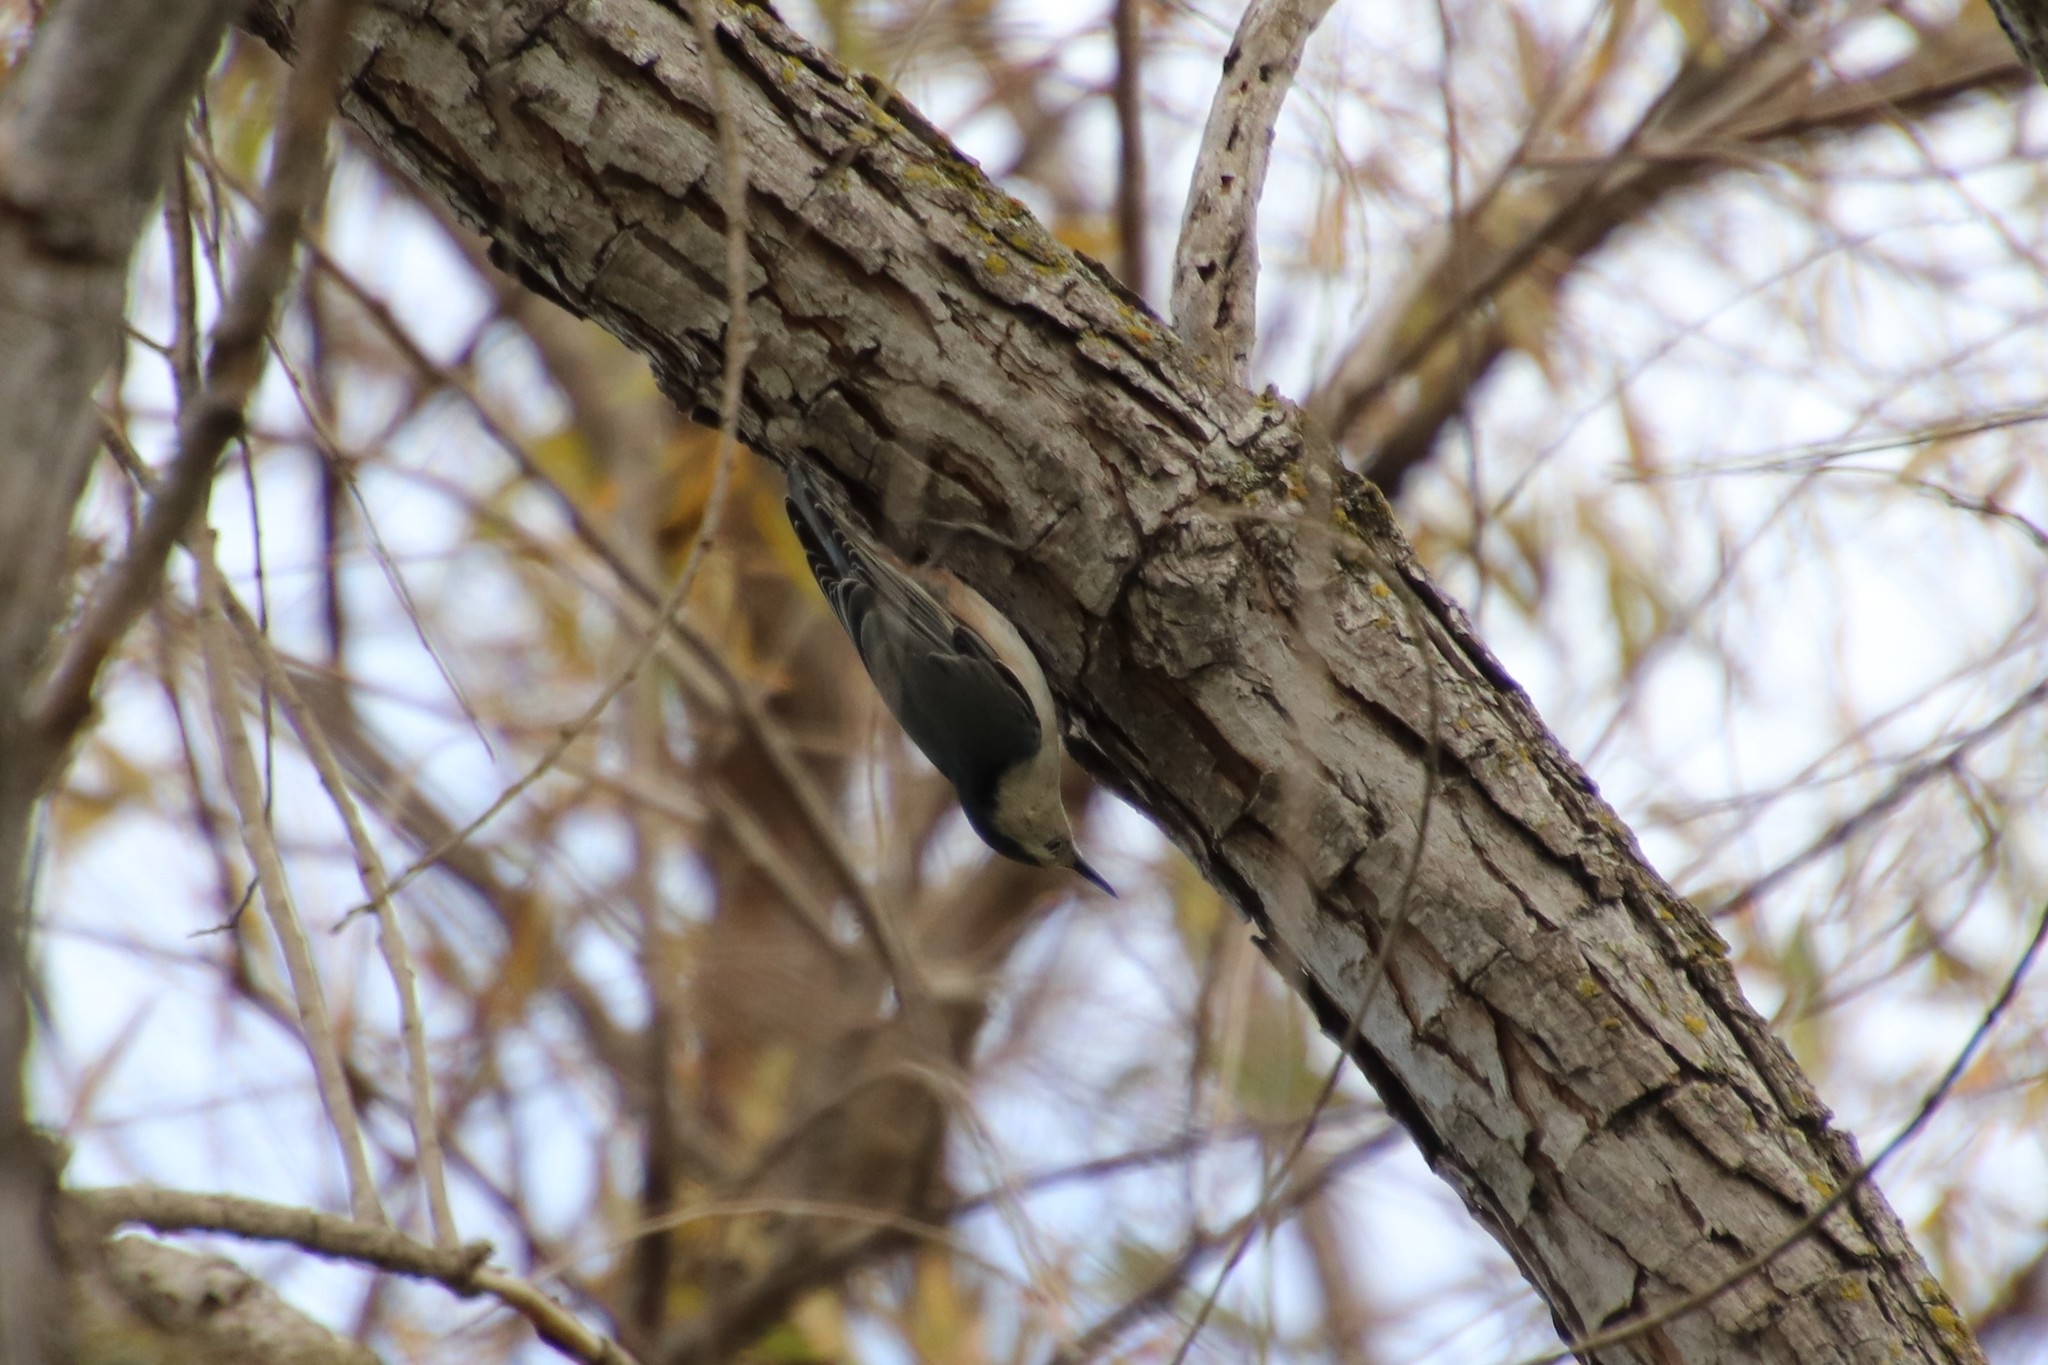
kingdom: Animalia
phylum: Chordata
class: Aves
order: Passeriformes
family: Sittidae
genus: Sitta
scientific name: Sitta carolinensis
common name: White-breasted nuthatch
